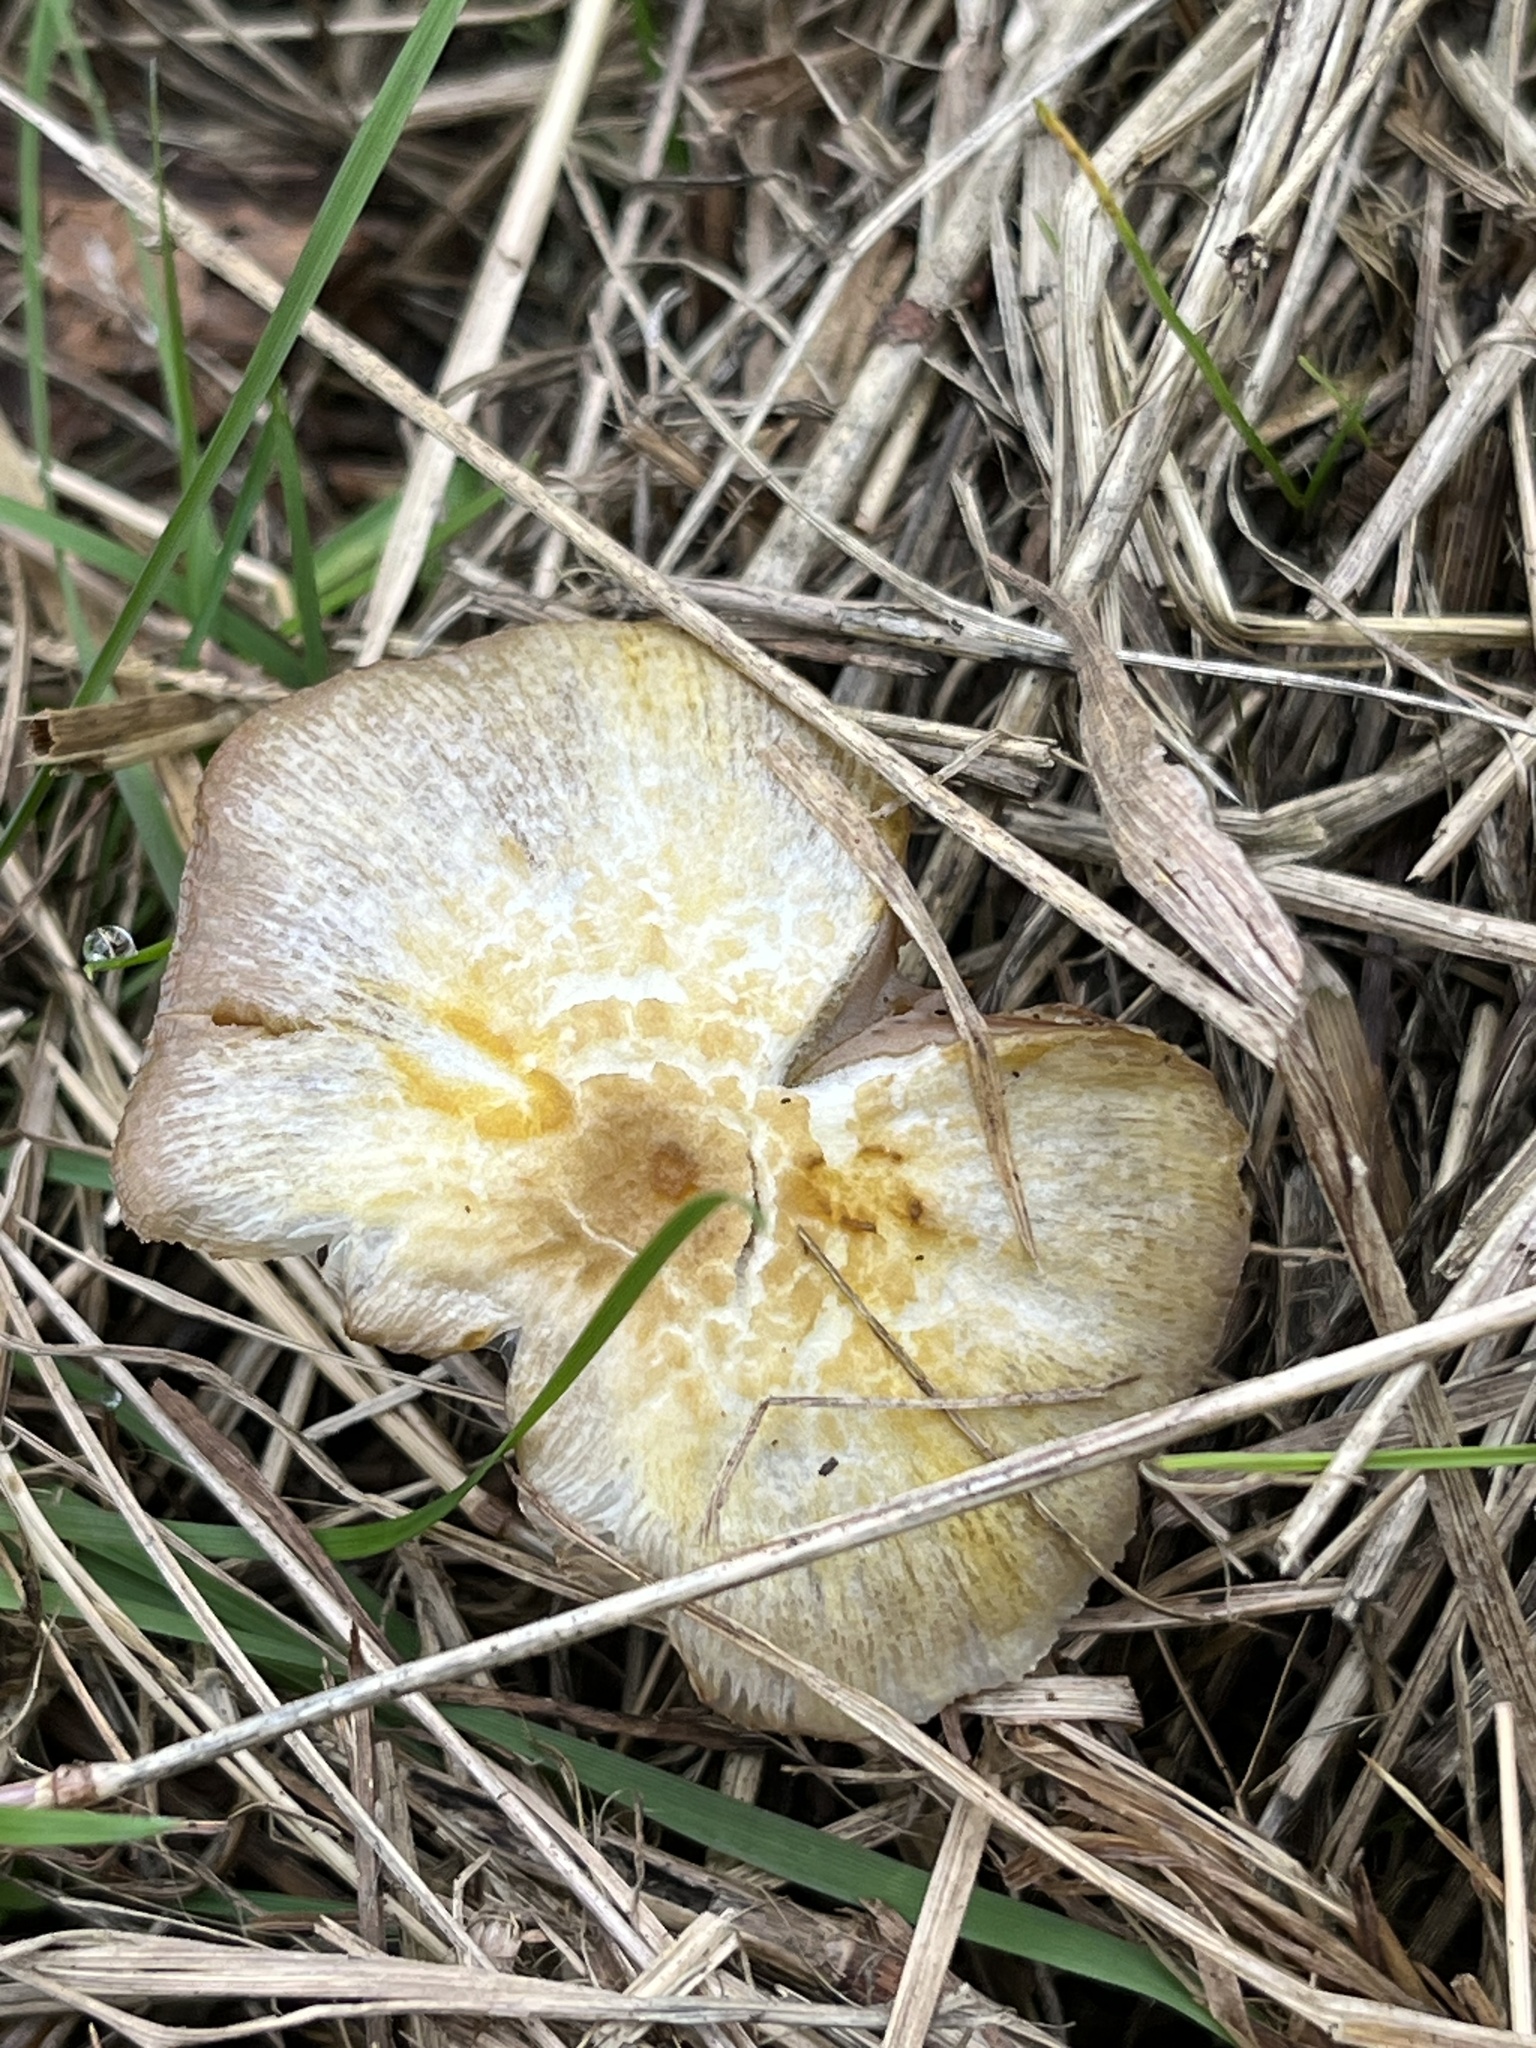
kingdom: Fungi
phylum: Basidiomycota
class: Agaricomycetes
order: Agaricales
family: Bolbitiaceae
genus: Bolbitius
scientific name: Bolbitius titubans
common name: Yellow fieldcap
